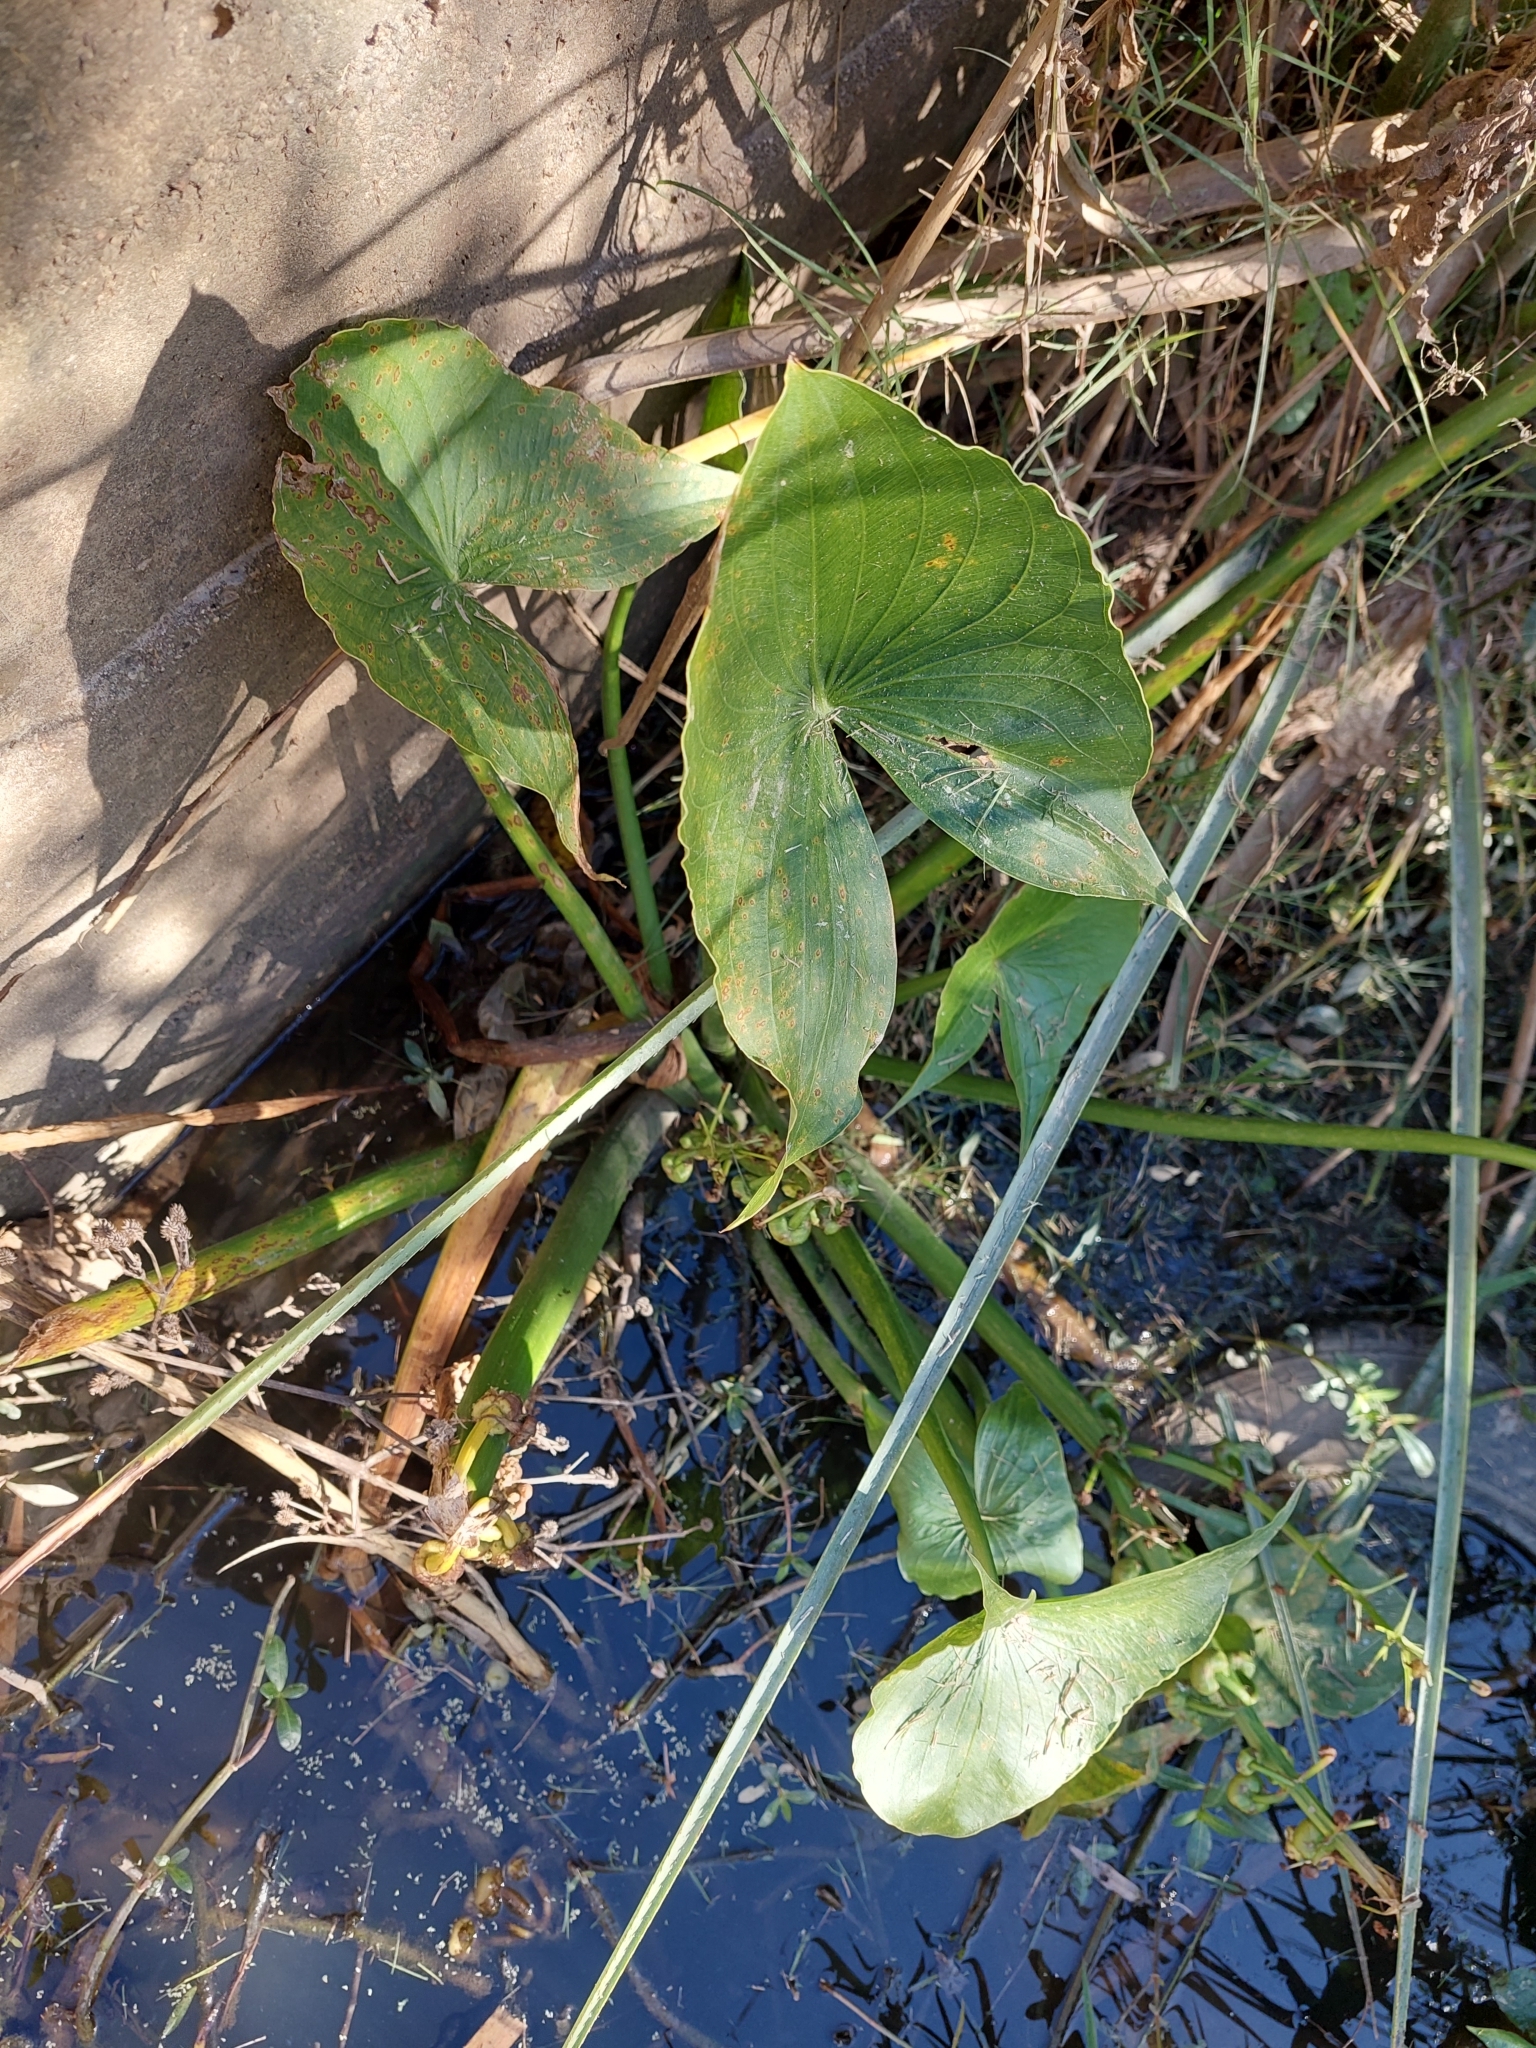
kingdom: Plantae
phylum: Tracheophyta
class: Liliopsida
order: Alismatales
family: Alismataceae
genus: Sagittaria
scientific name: Sagittaria montevidensis
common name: Giant arrowhead
